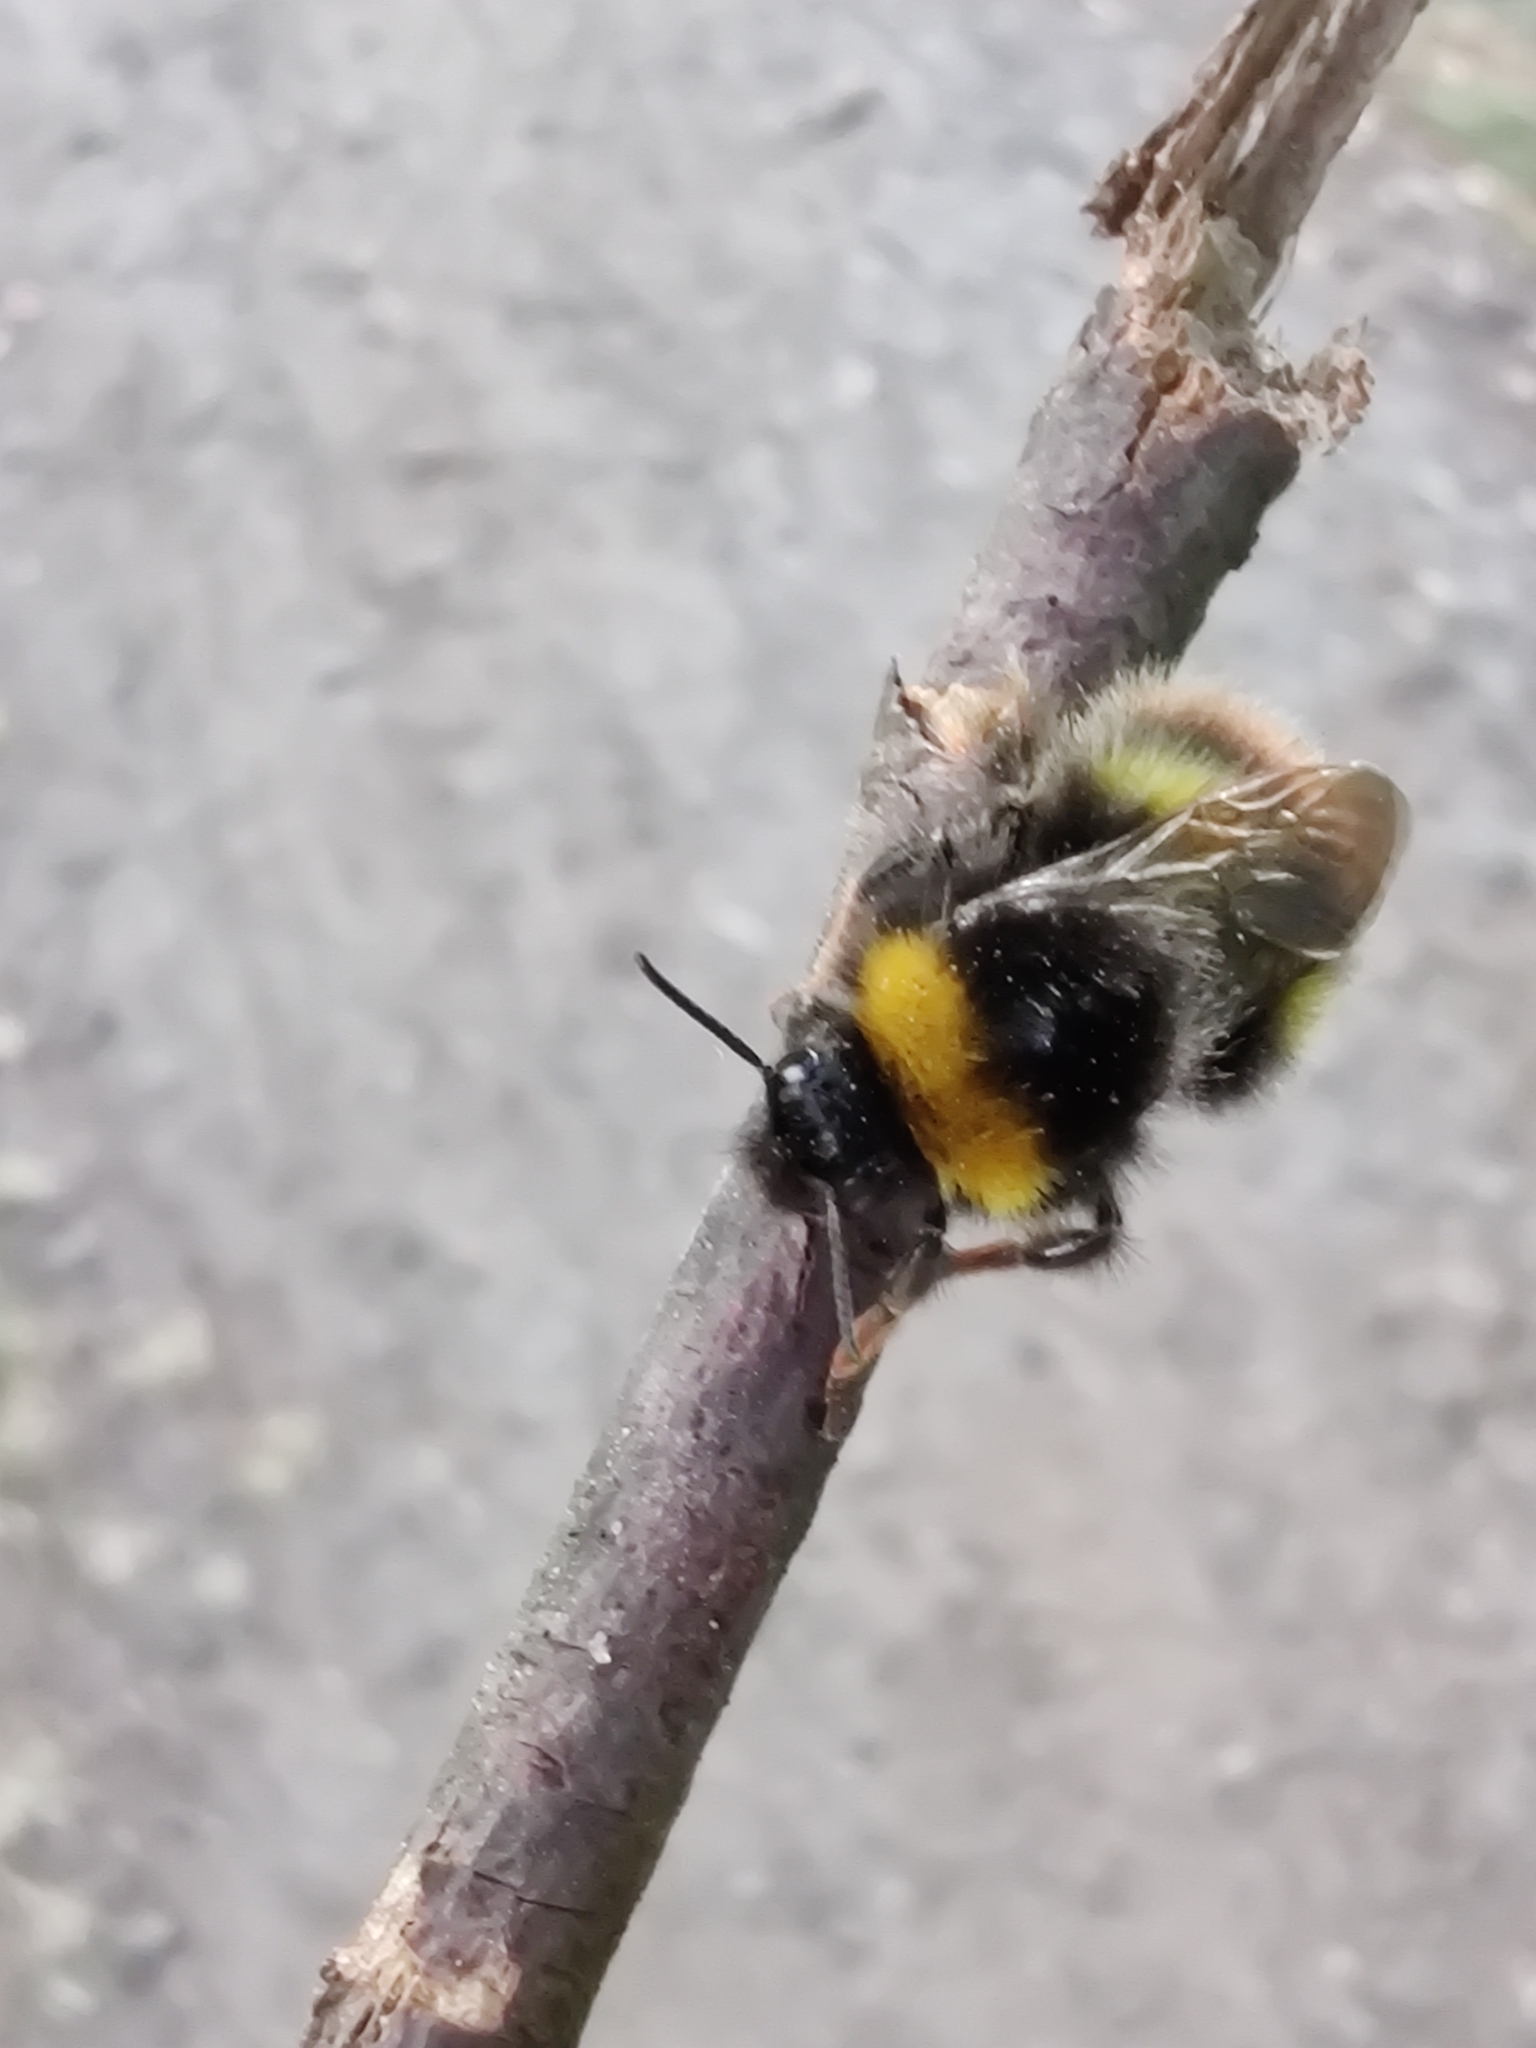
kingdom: Animalia
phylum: Arthropoda
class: Insecta
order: Hymenoptera
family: Apidae
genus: Bombus
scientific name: Bombus pratorum
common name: Early humble-bee
